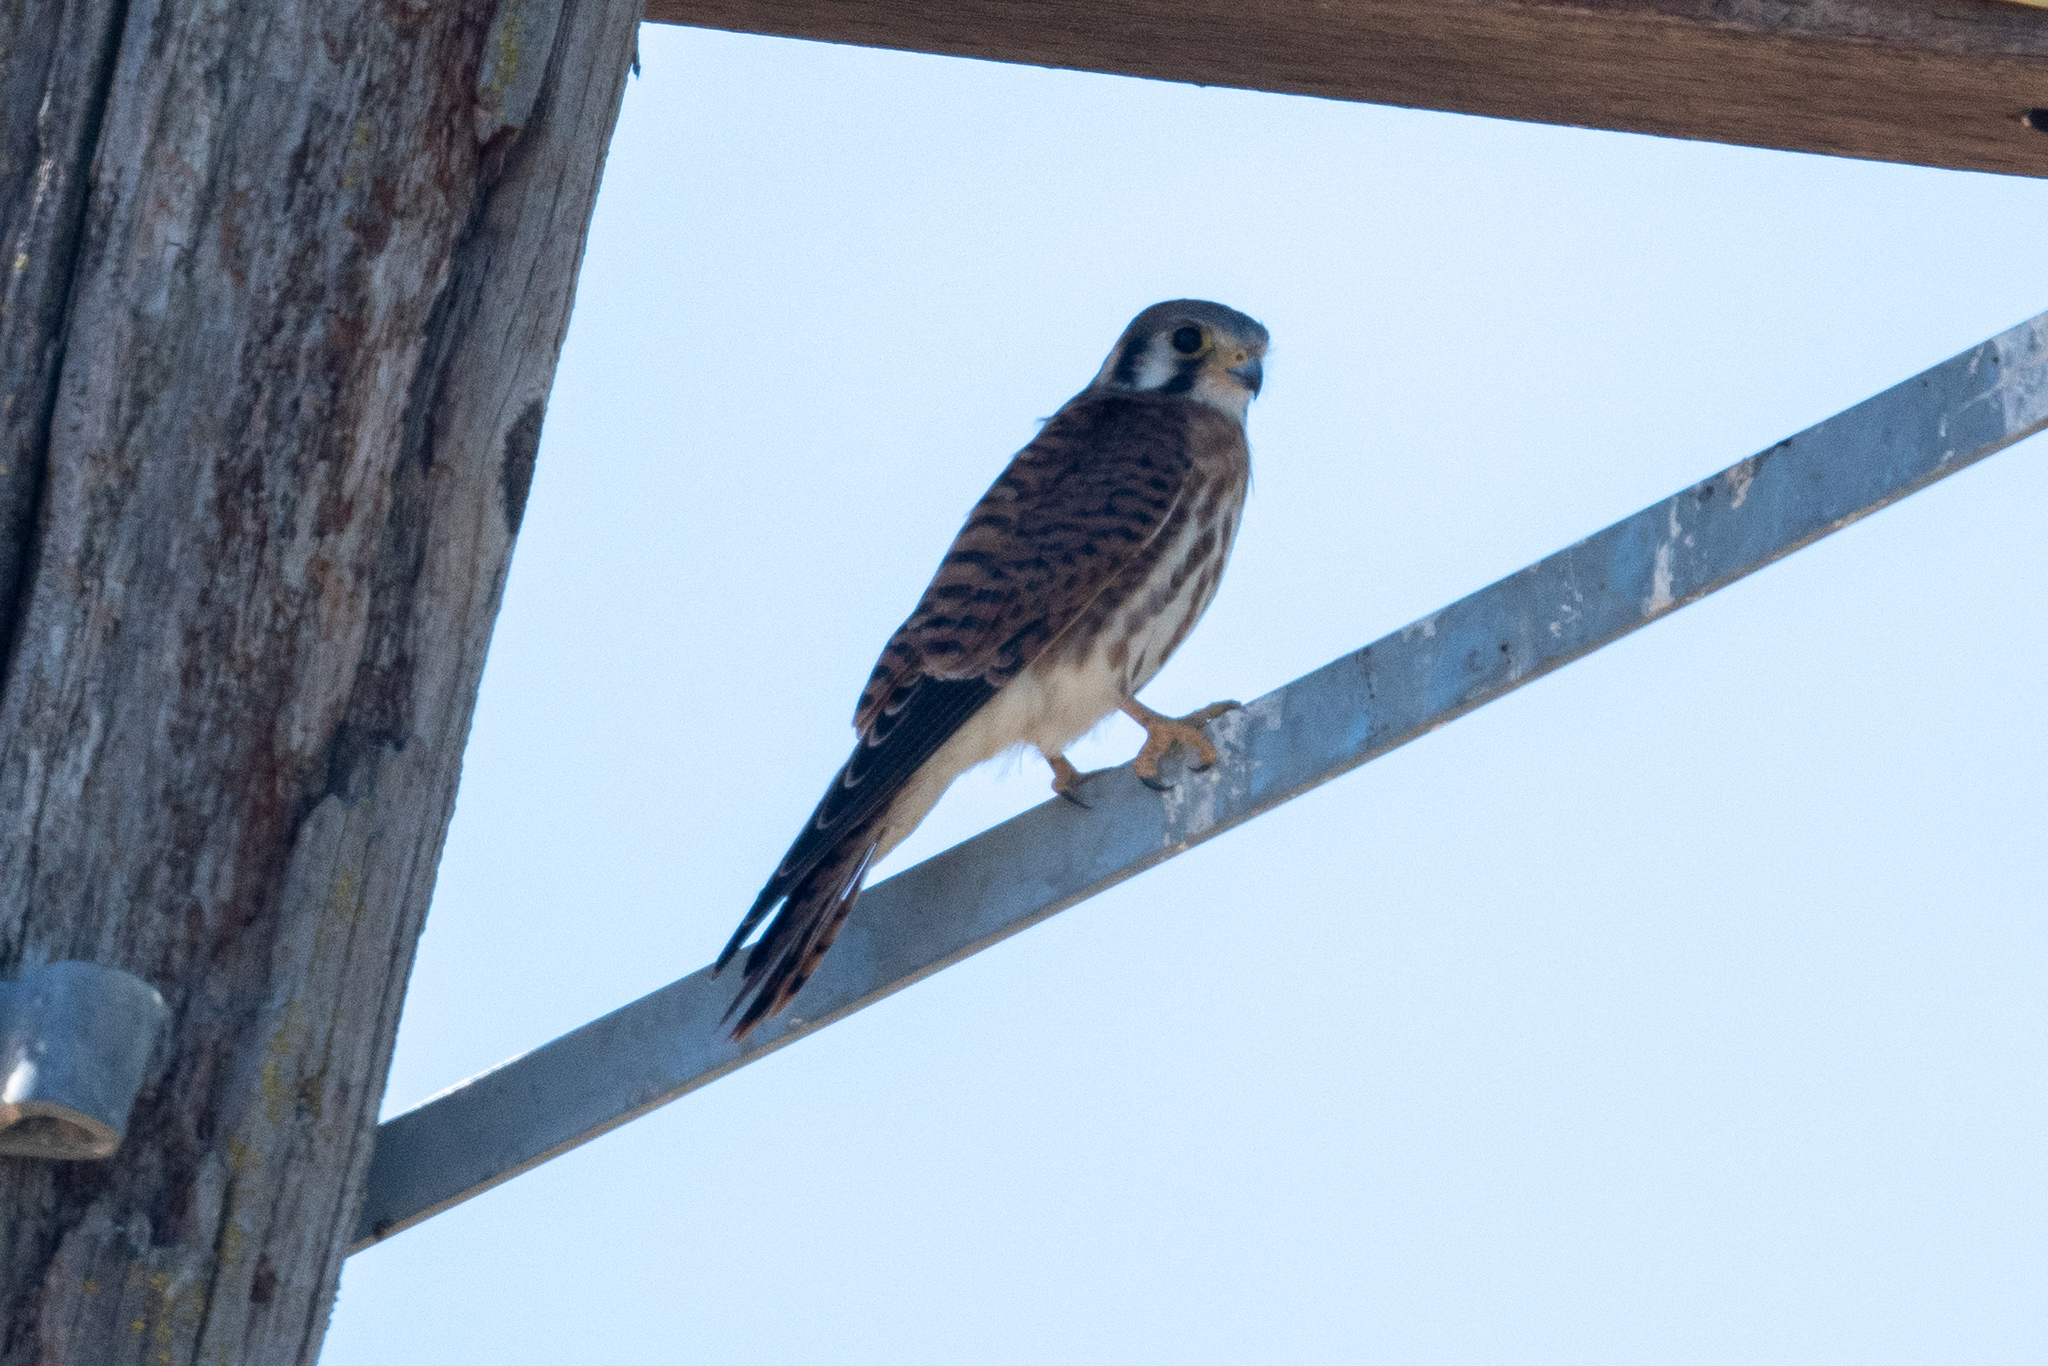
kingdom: Animalia
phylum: Chordata
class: Aves
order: Falconiformes
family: Falconidae
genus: Falco
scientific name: Falco sparverius
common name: American kestrel
